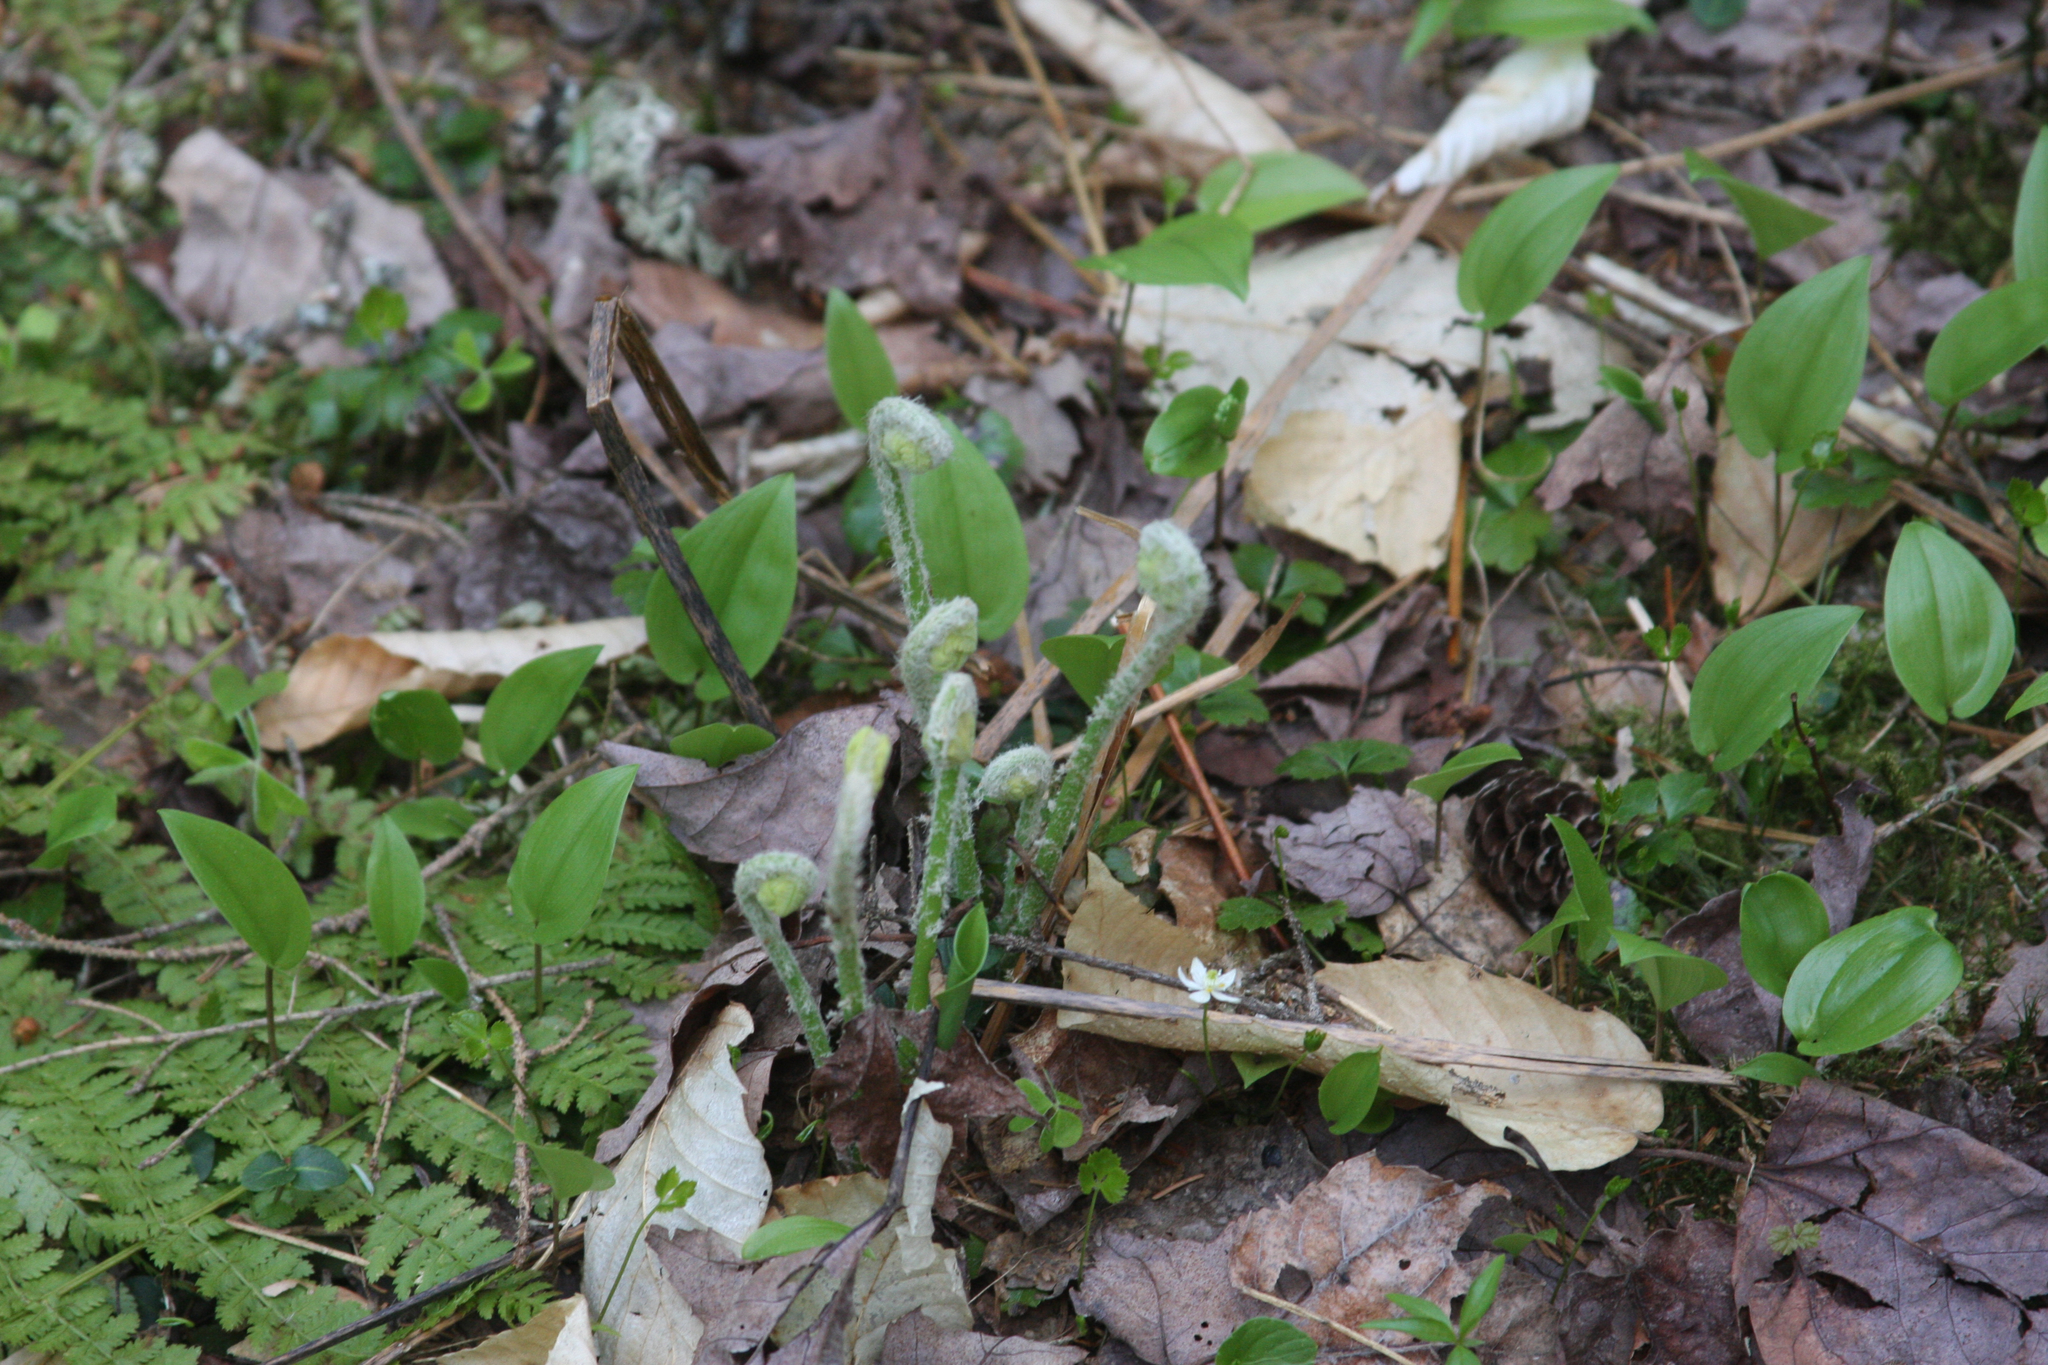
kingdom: Plantae
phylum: Tracheophyta
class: Liliopsida
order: Asparagales
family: Asparagaceae
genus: Maianthemum
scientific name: Maianthemum canadense
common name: False lily-of-the-valley
